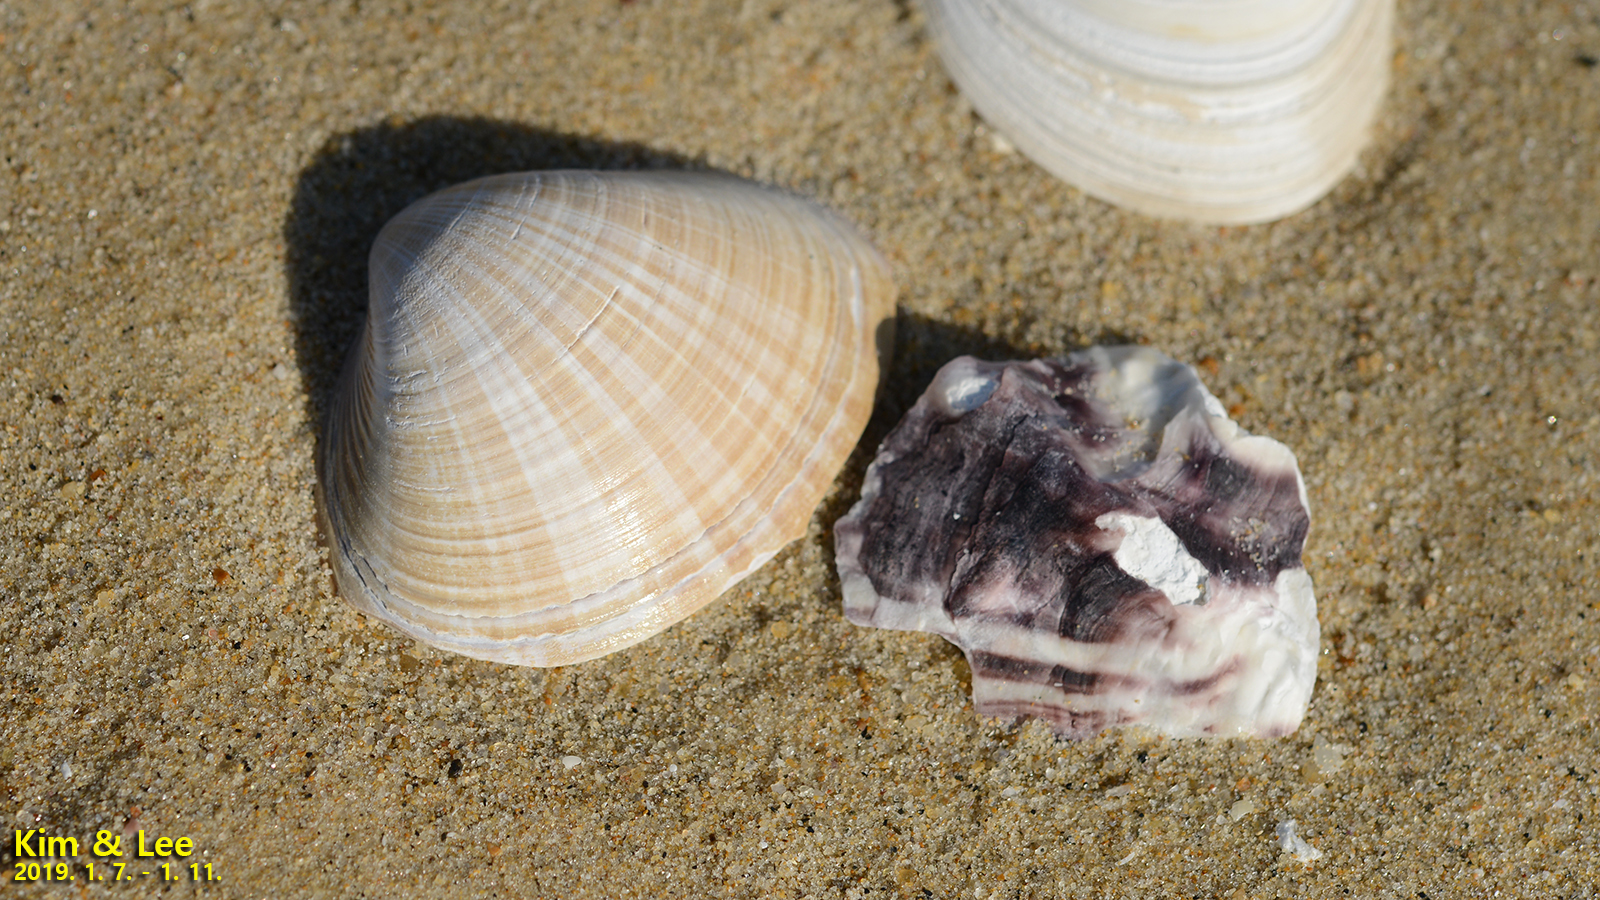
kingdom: Animalia
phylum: Mollusca
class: Bivalvia
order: Venerida
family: Mactridae
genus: Mactra
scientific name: Mactra chinensis
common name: Chinese surf clam
